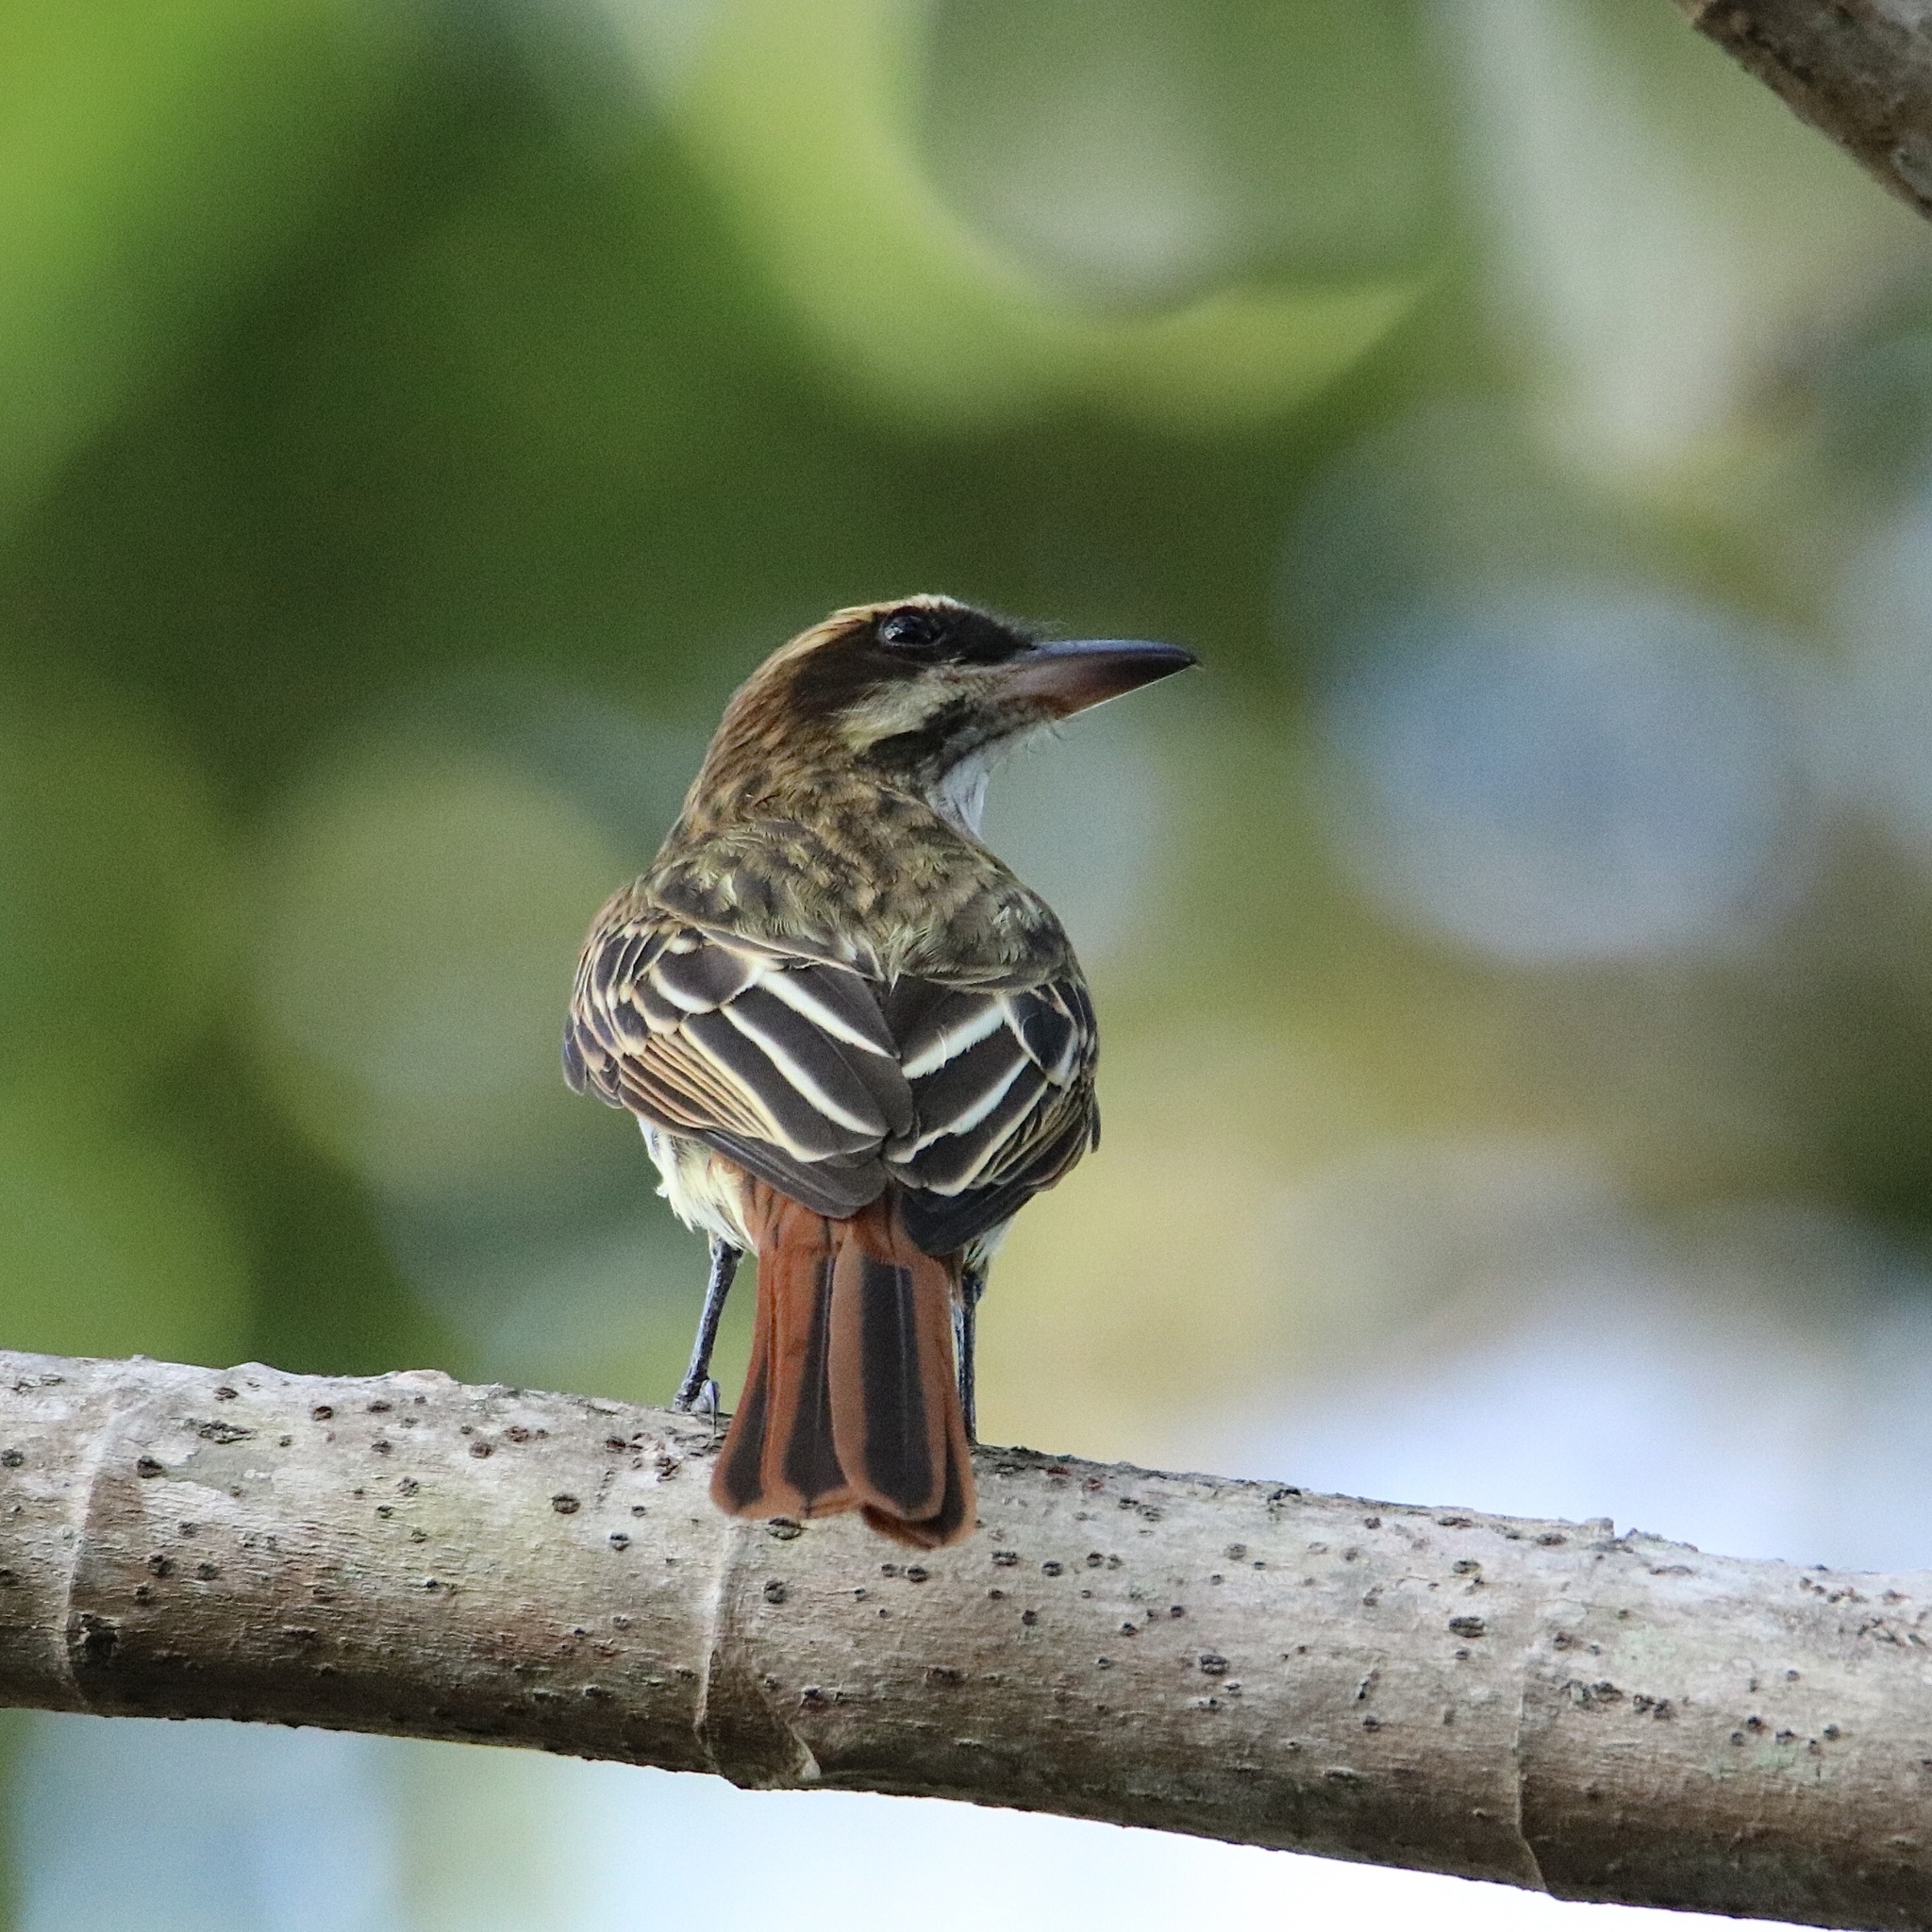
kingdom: Animalia
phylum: Chordata
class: Aves
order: Passeriformes
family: Tyrannidae
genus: Myiodynastes
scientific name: Myiodynastes maculatus
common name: Streaked flycatcher
